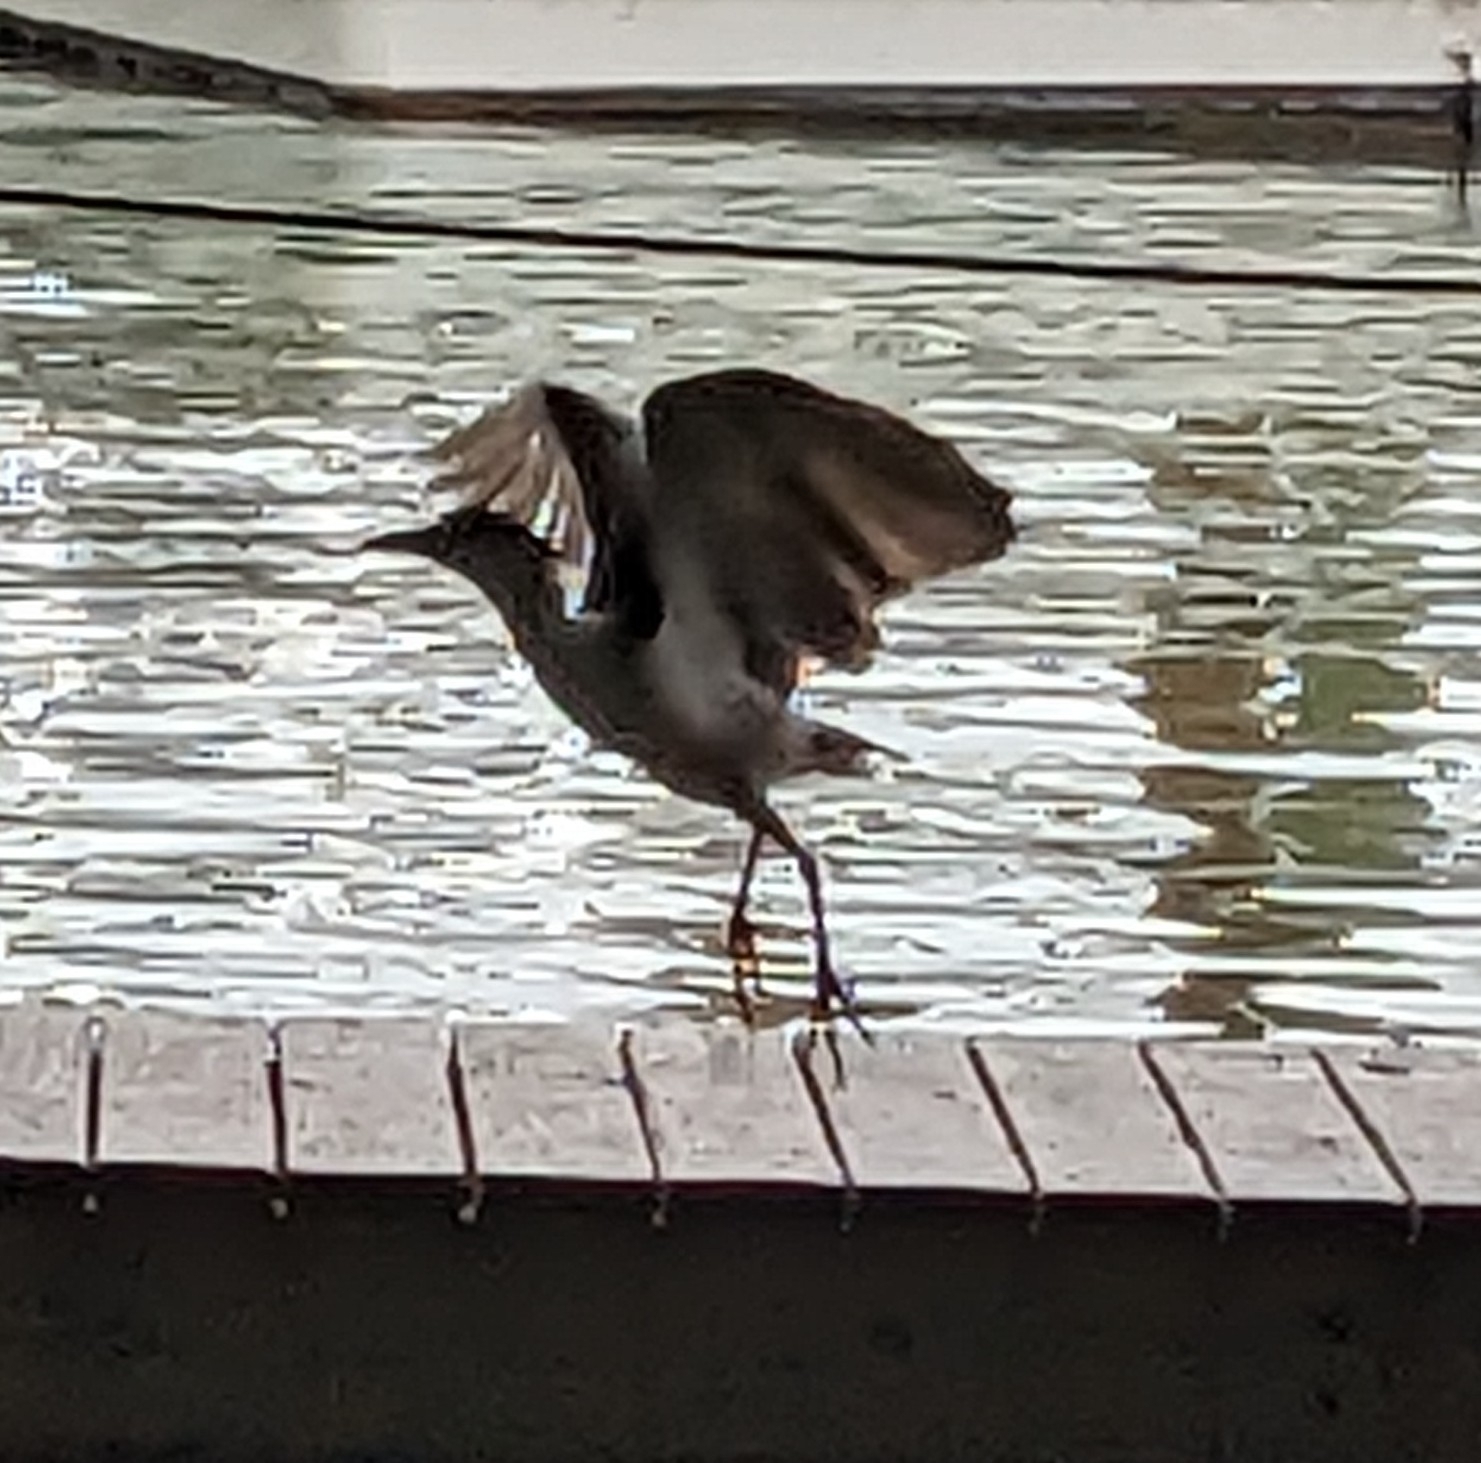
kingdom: Animalia
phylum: Chordata
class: Aves
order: Pelecaniformes
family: Ardeidae
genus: Butorides
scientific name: Butorides virescens
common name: Green heron
